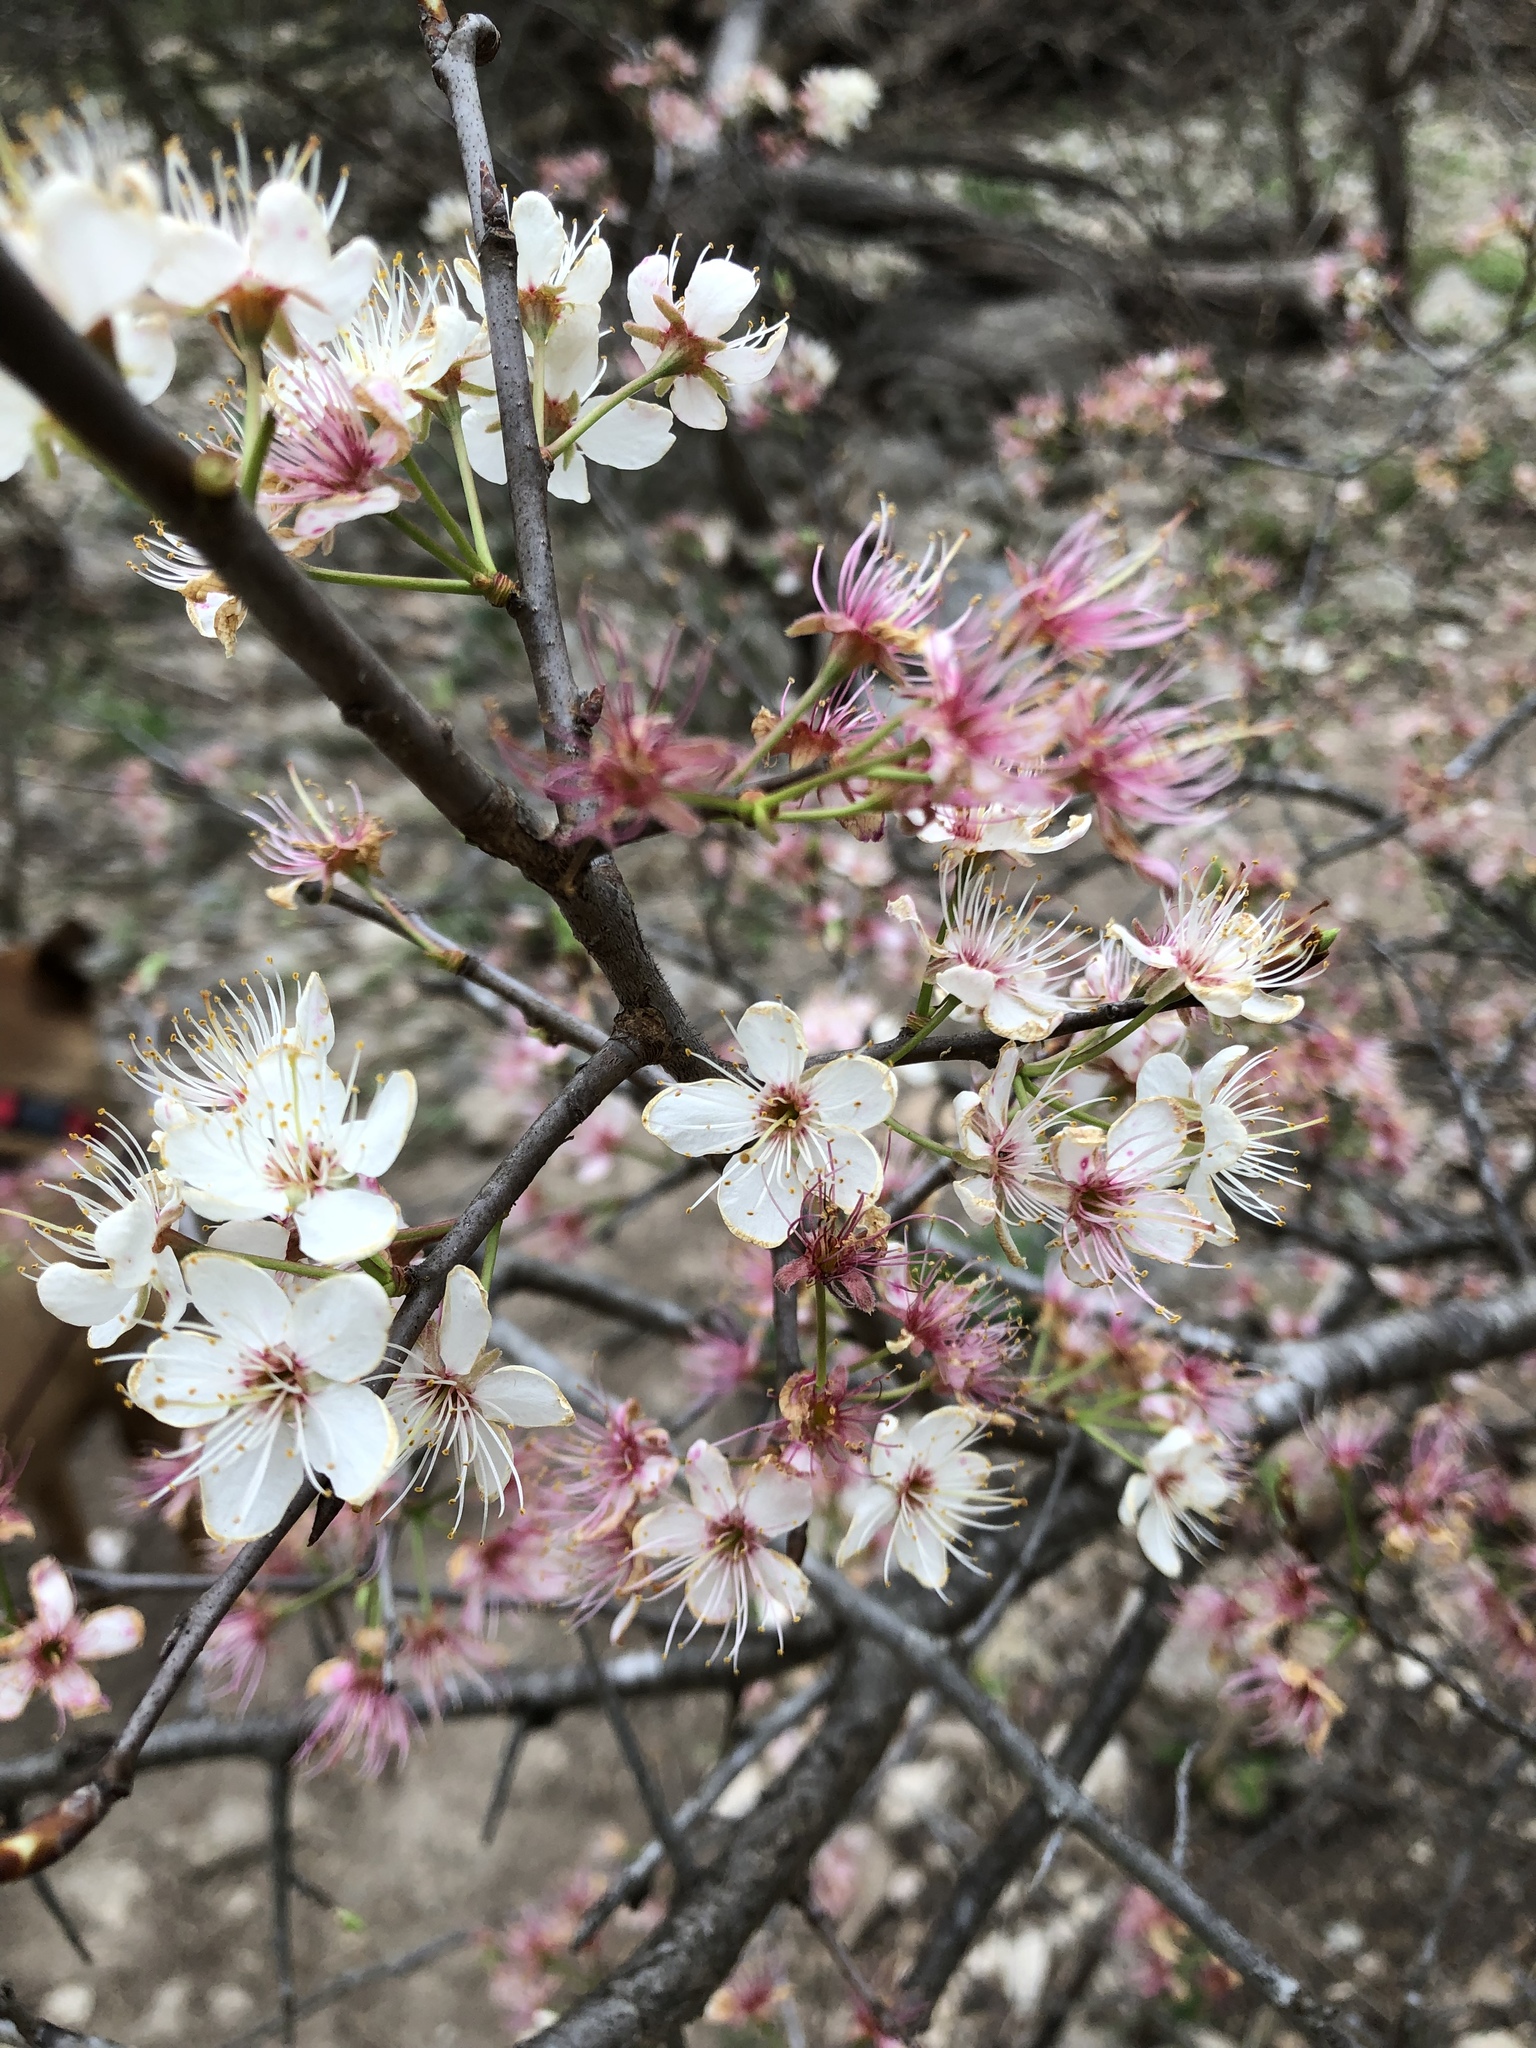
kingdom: Plantae
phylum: Tracheophyta
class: Magnoliopsida
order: Rosales
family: Rosaceae
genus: Prunus
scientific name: Prunus mexicana
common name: Mexican plum
